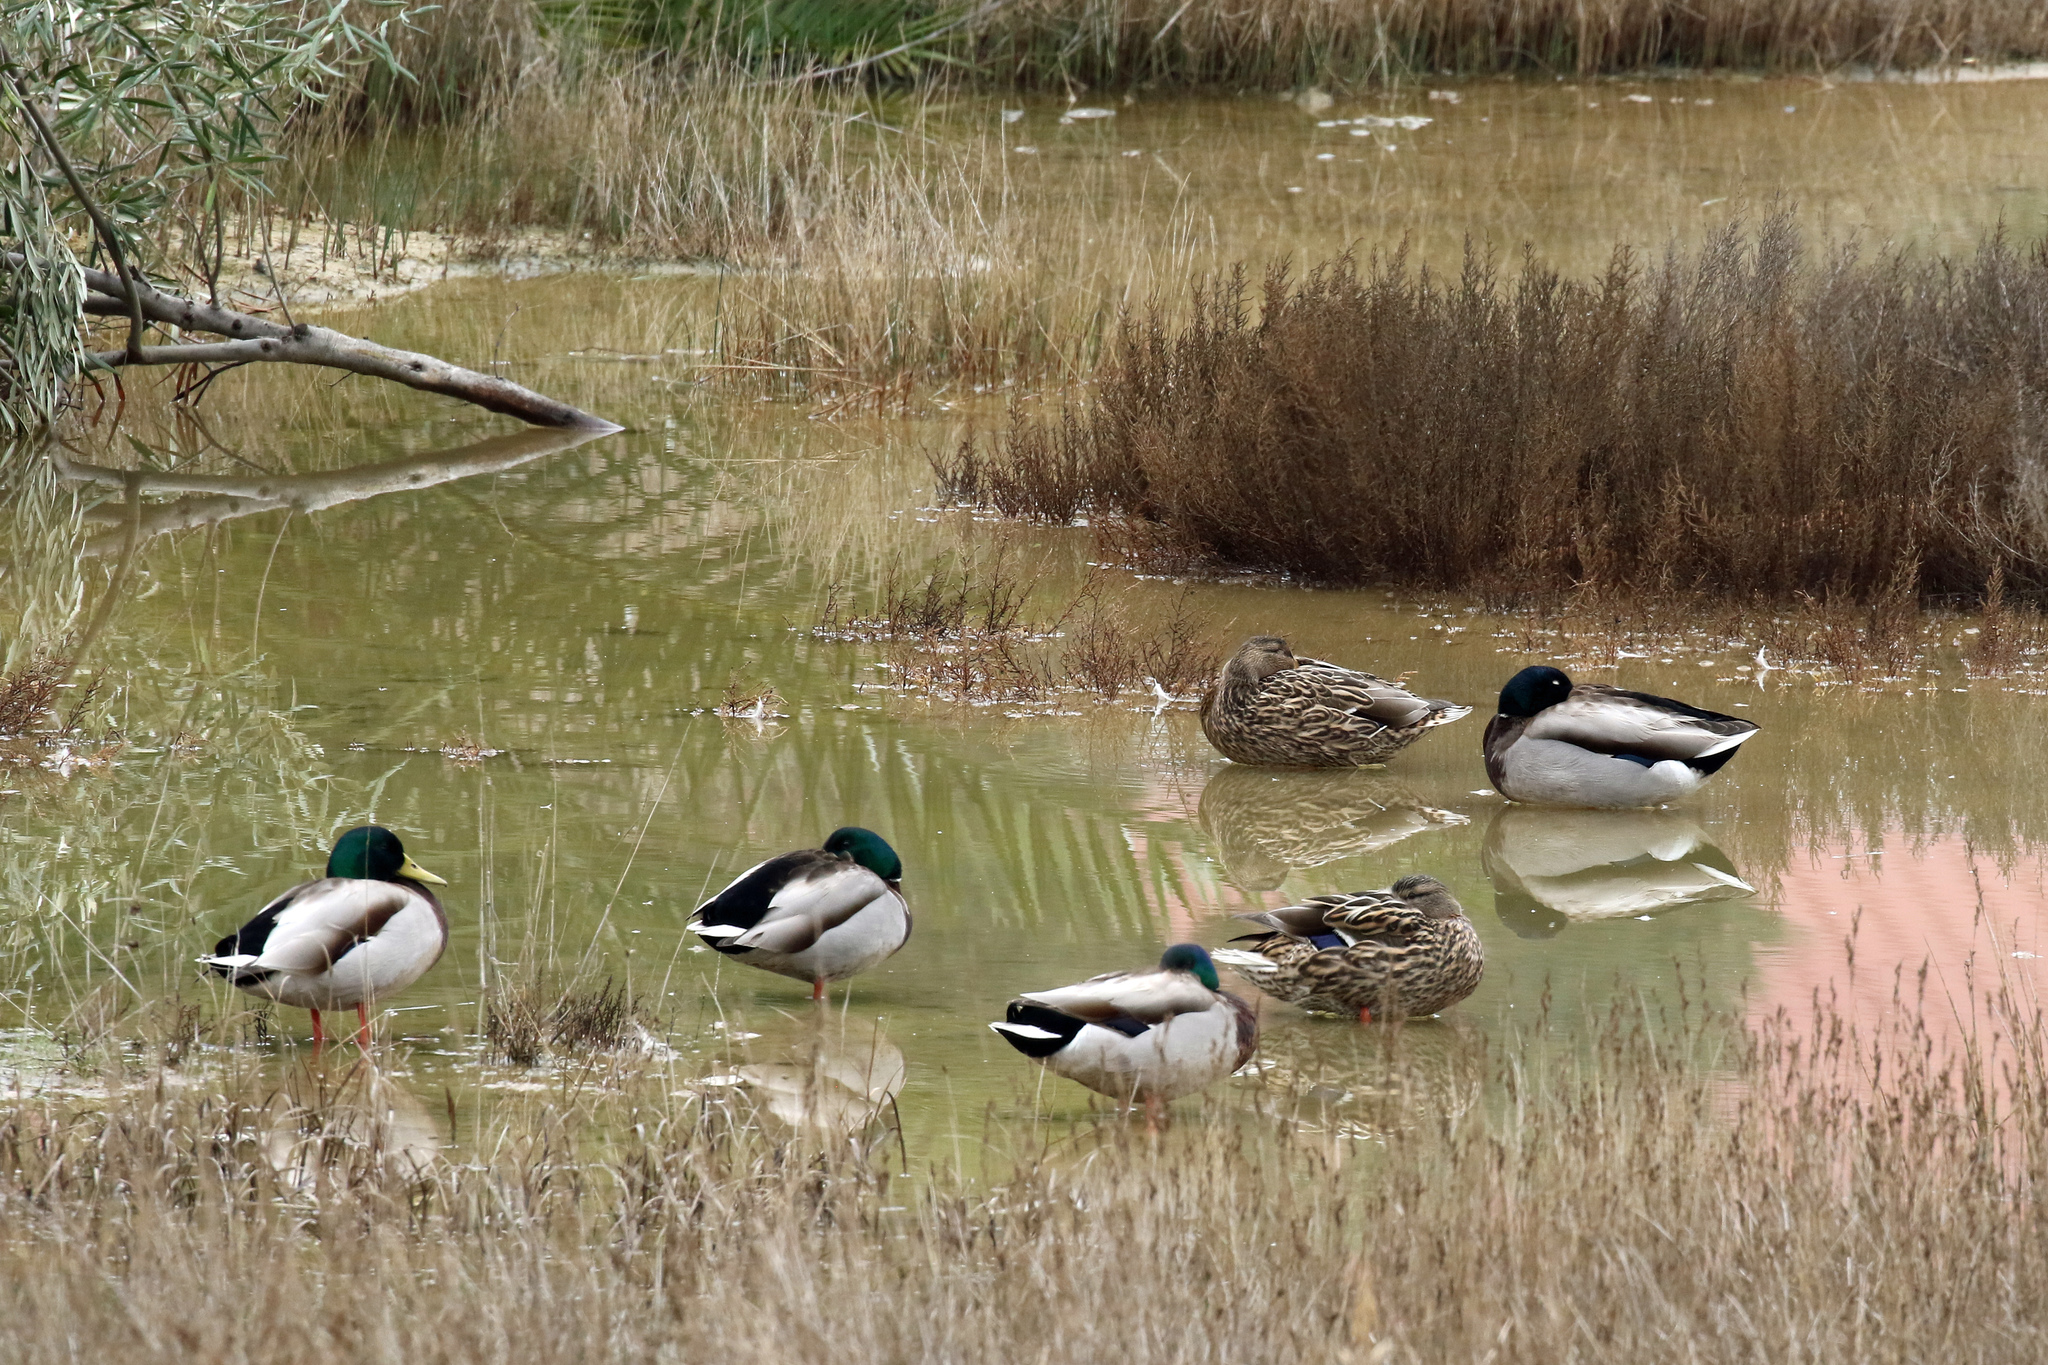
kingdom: Animalia
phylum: Chordata
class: Aves
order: Anseriformes
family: Anatidae
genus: Anas
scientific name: Anas platyrhynchos
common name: Mallard
